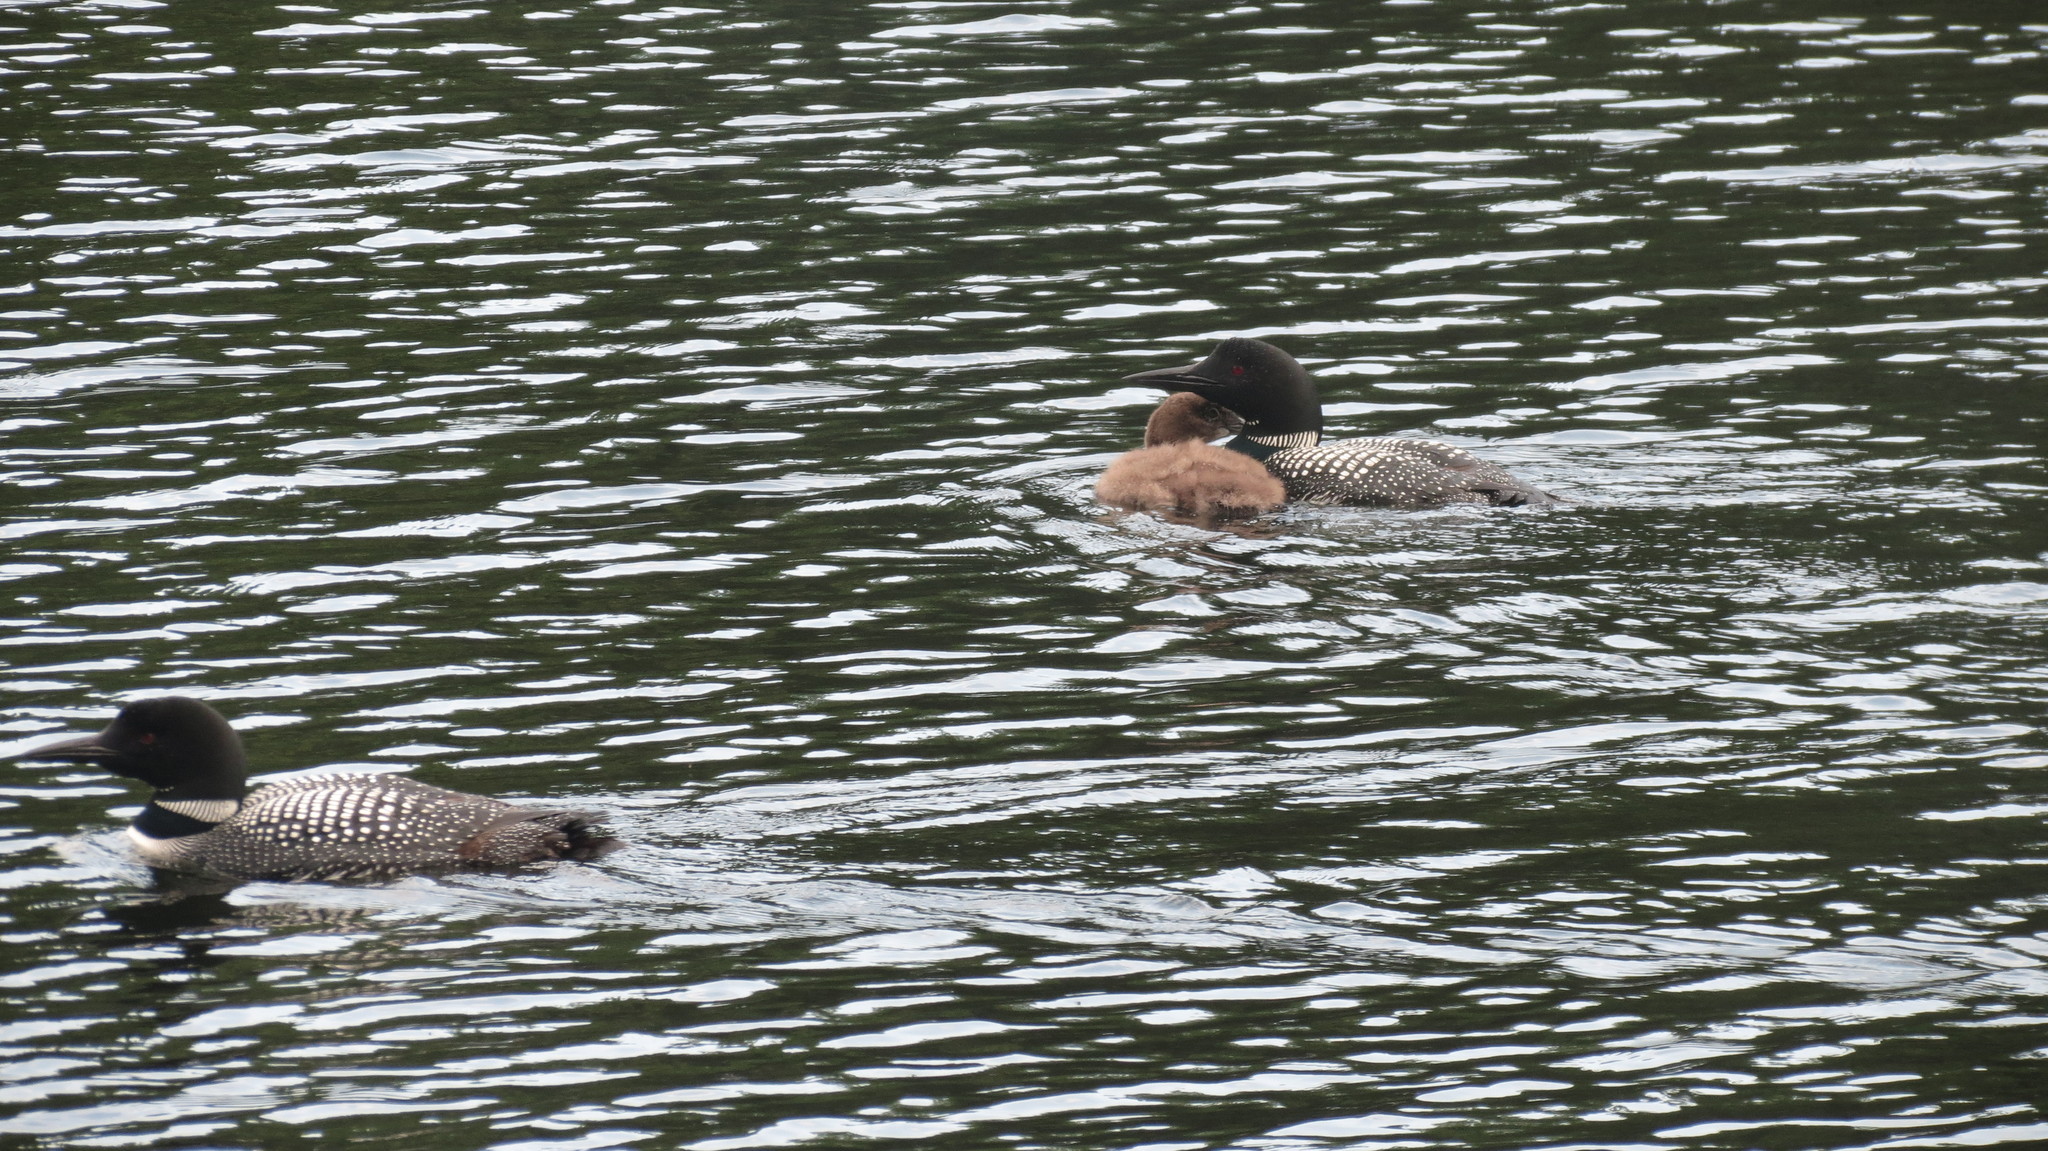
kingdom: Animalia
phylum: Chordata
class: Aves
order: Gaviiformes
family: Gaviidae
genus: Gavia
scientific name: Gavia immer
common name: Common loon
